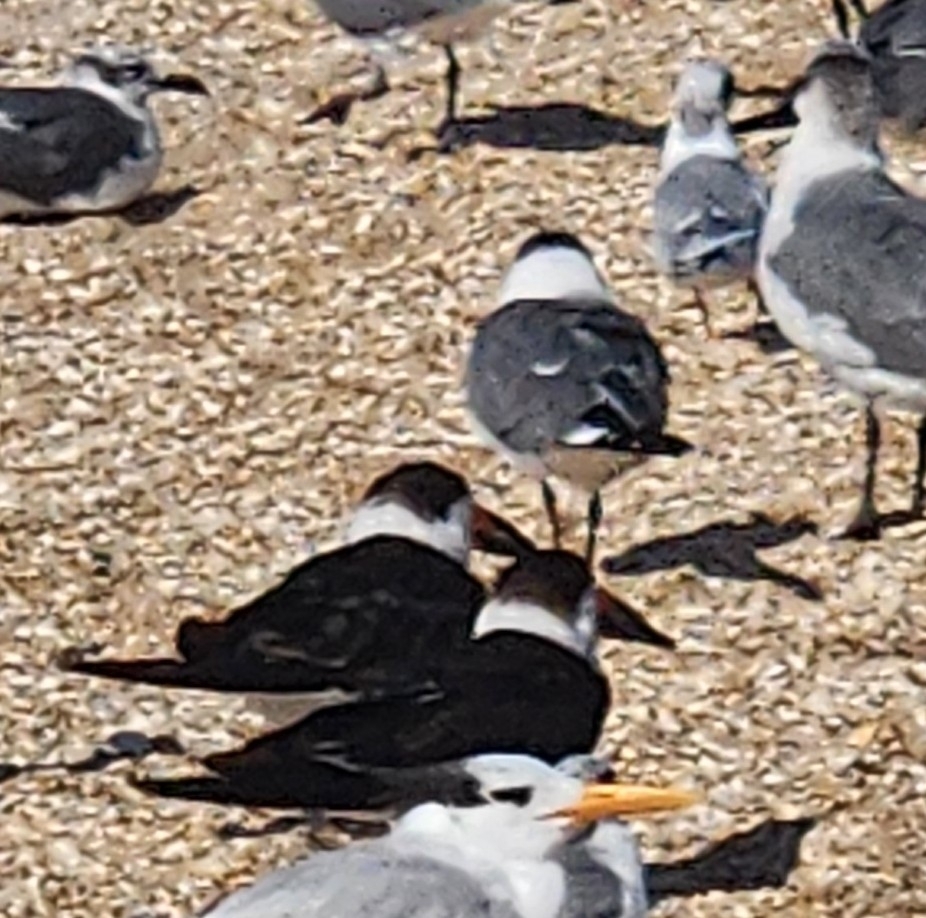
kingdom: Animalia
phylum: Chordata
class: Aves
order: Charadriiformes
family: Laridae
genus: Rynchops
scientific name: Rynchops niger
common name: Black skimmer
